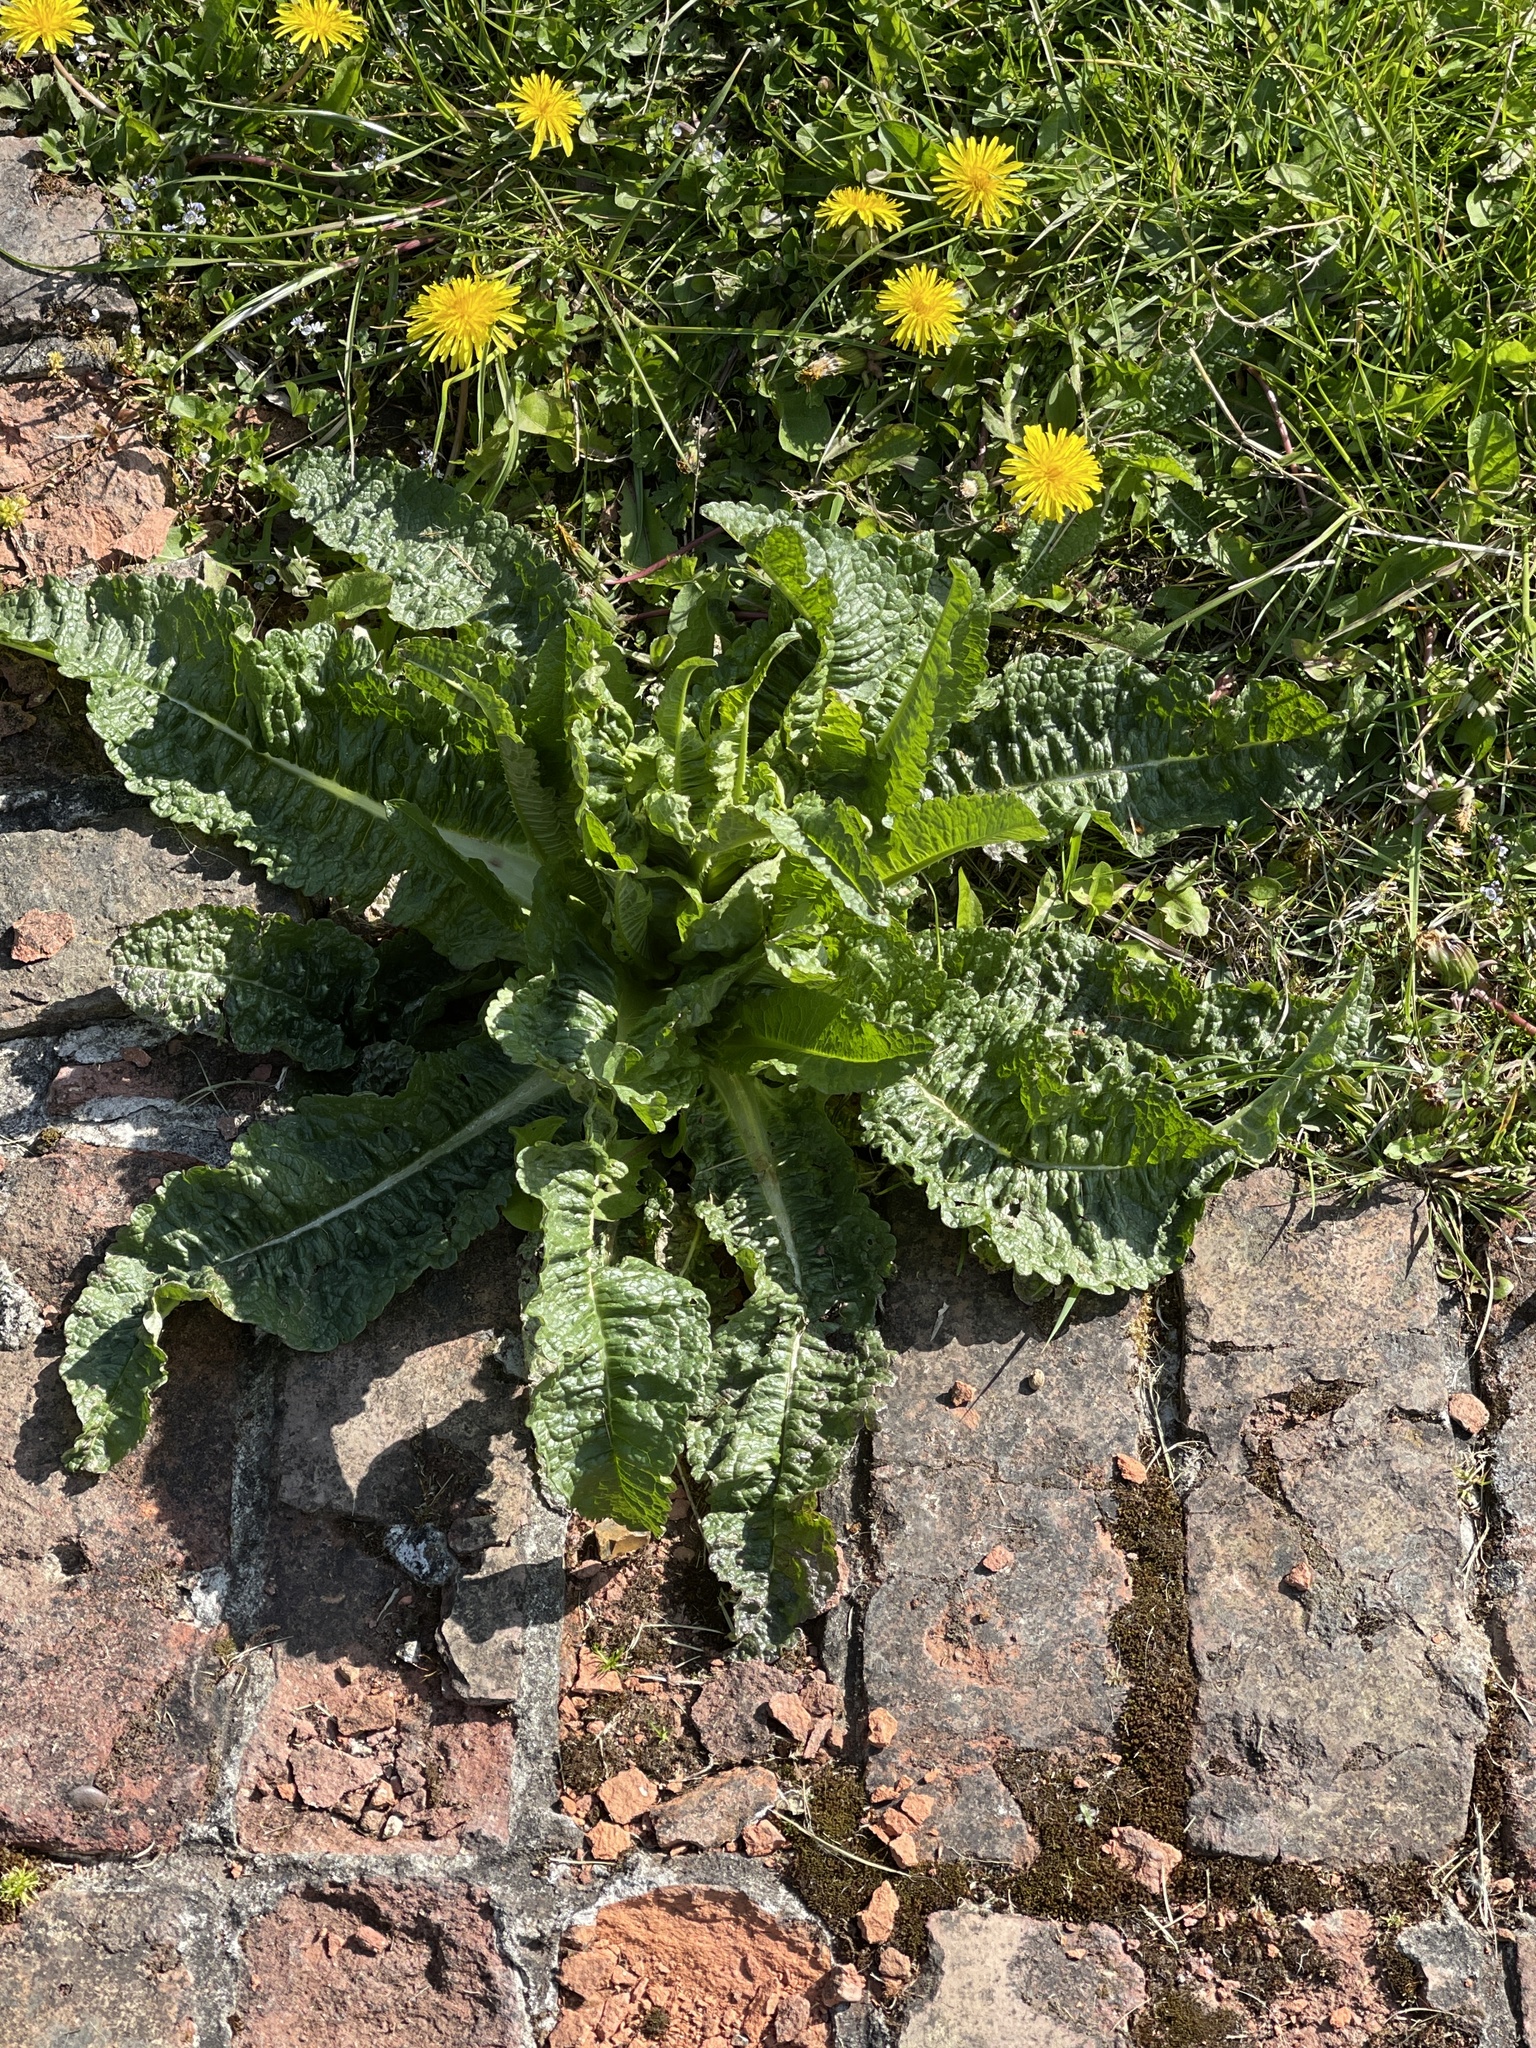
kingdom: Plantae
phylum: Tracheophyta
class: Magnoliopsida
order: Dipsacales
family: Caprifoliaceae
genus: Dipsacus
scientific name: Dipsacus fullonum
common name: Teasel
